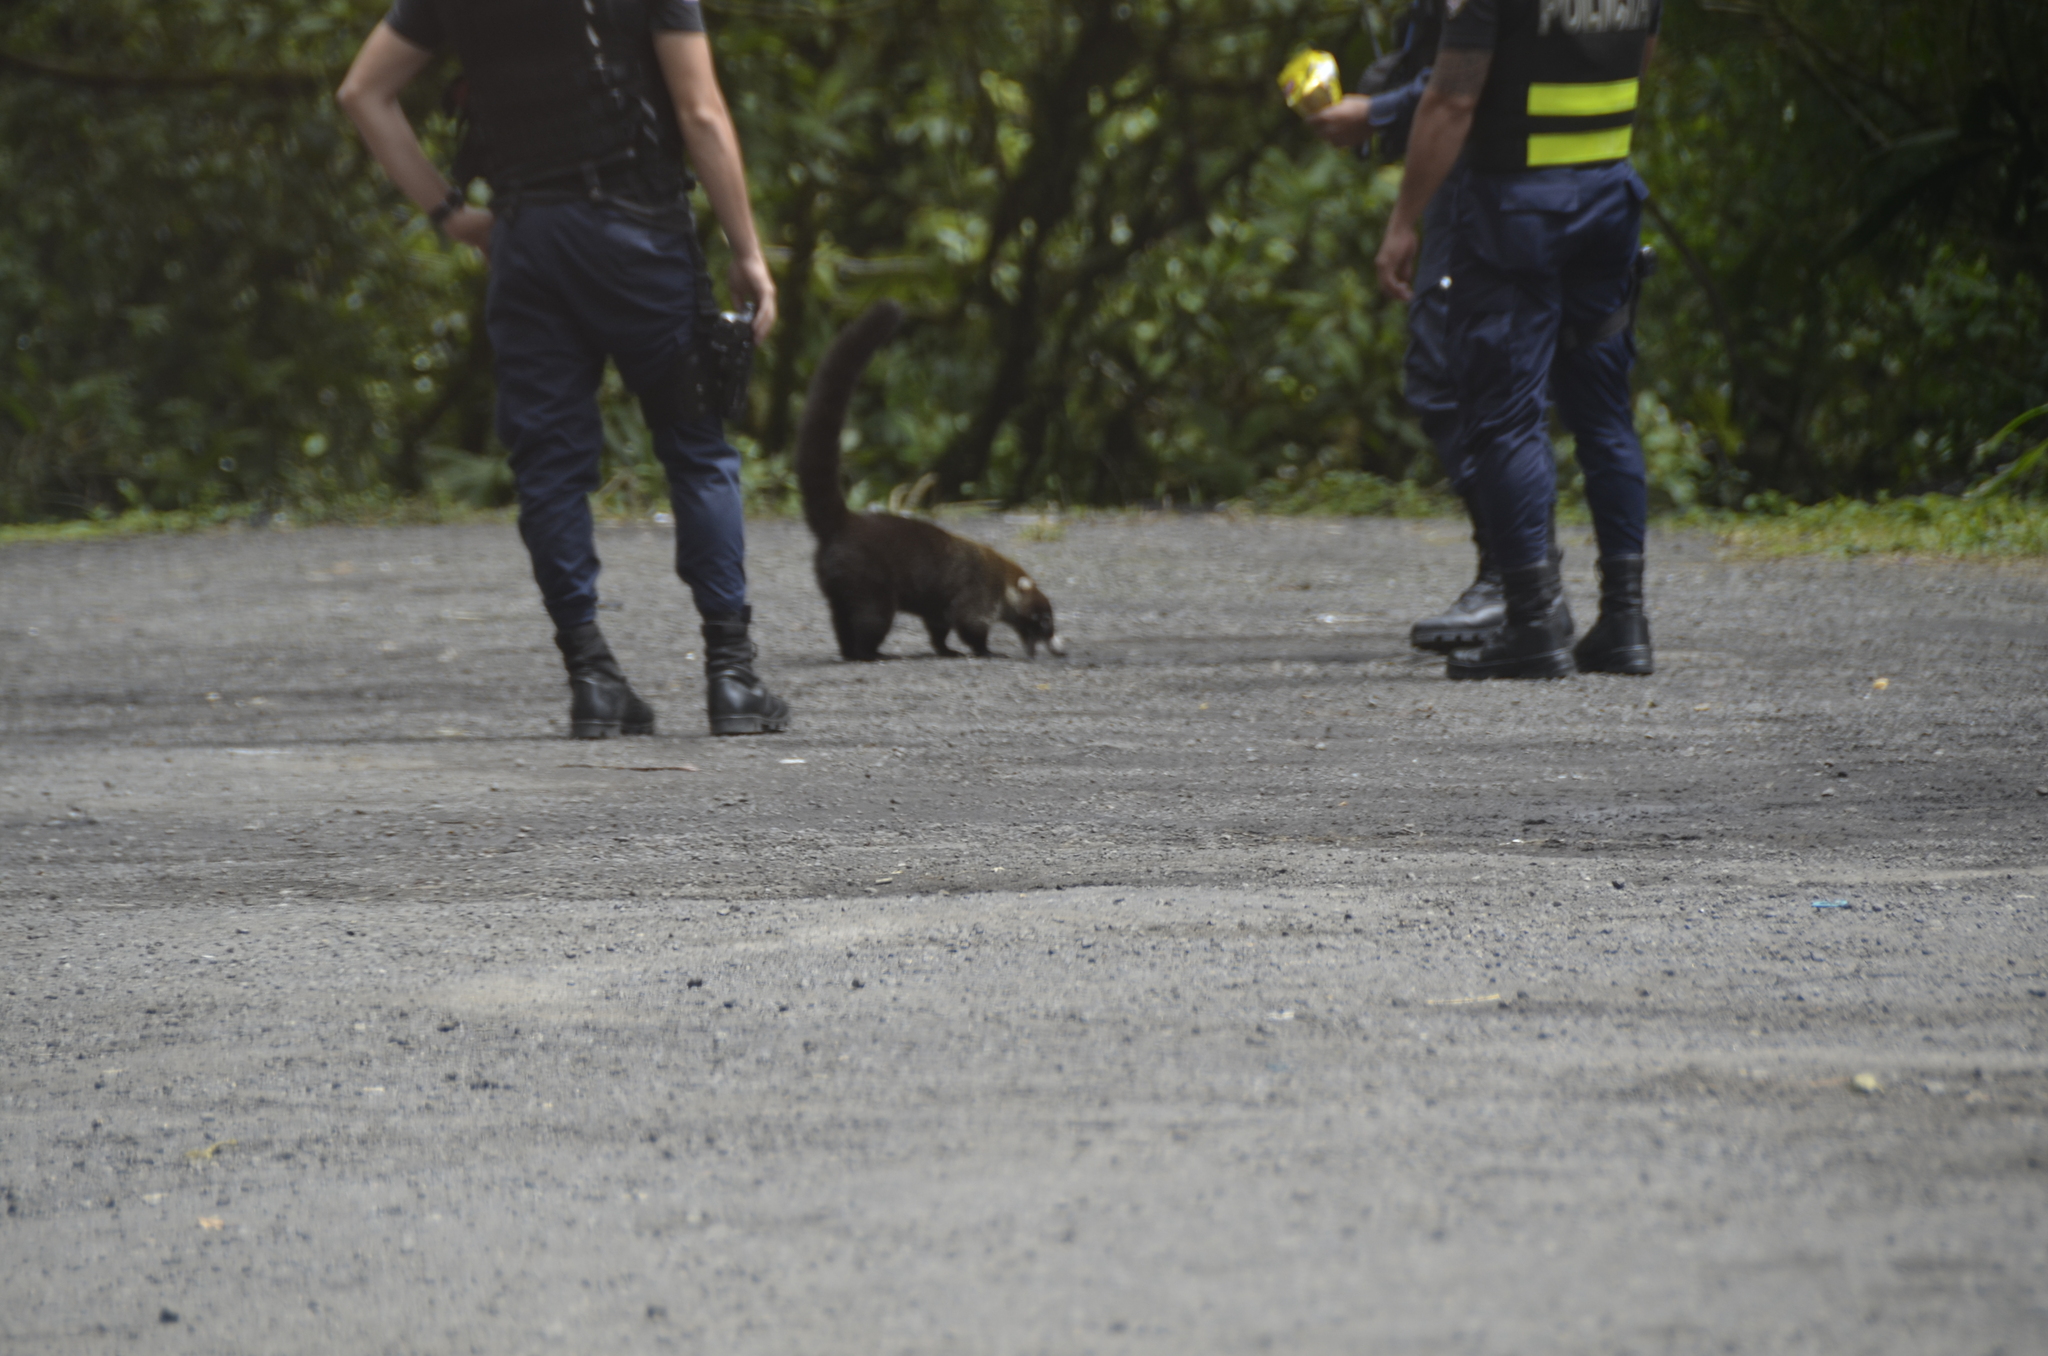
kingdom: Animalia
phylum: Chordata
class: Mammalia
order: Carnivora
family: Procyonidae
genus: Nasua
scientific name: Nasua narica
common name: White-nosed coati
